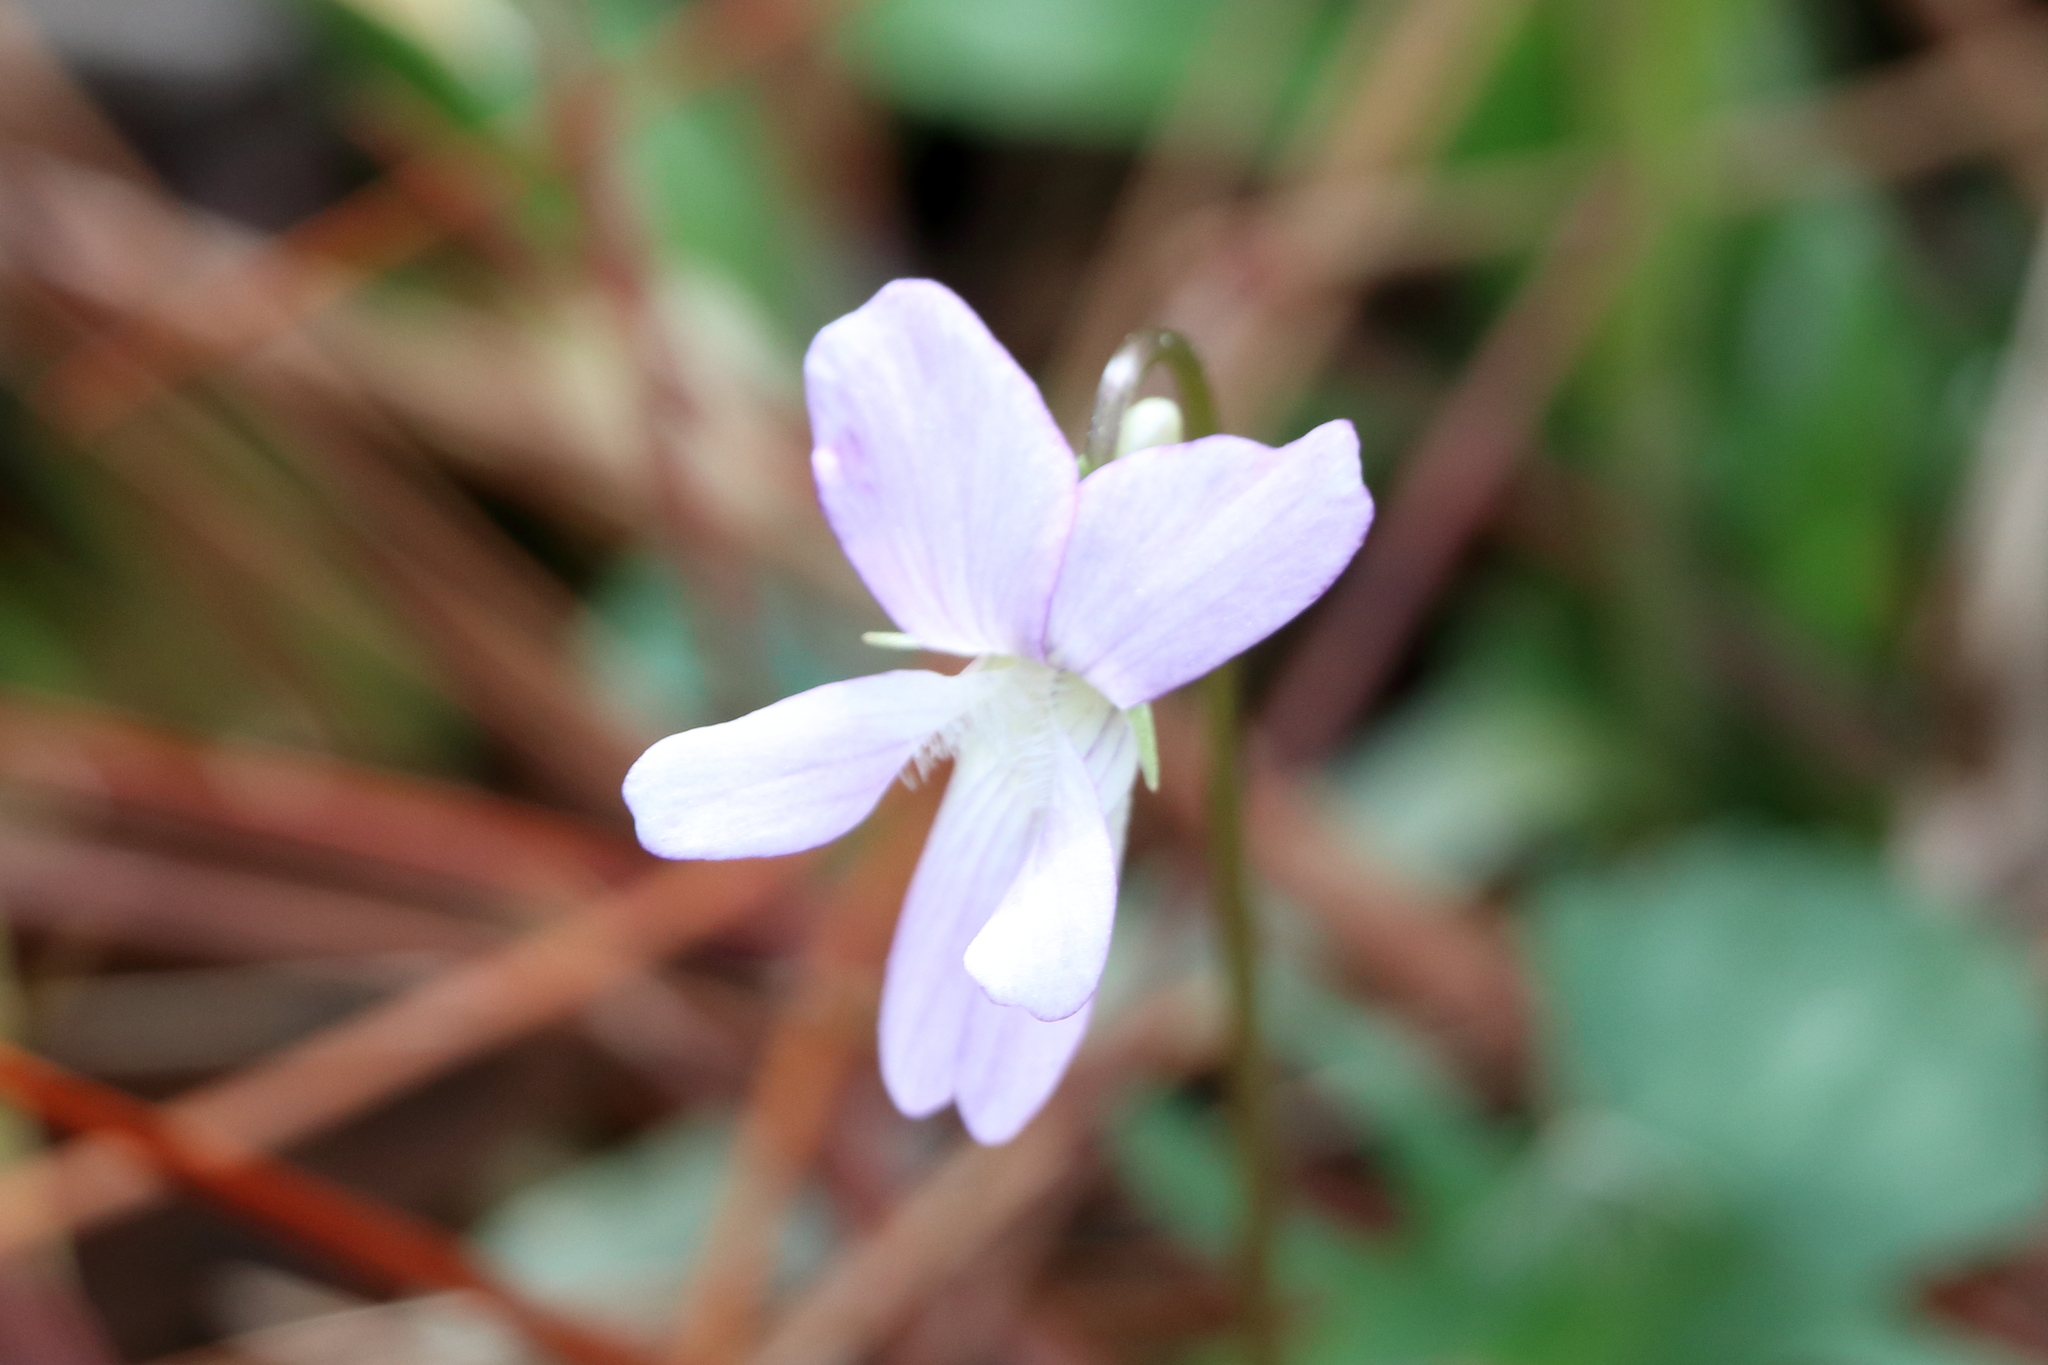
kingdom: Plantae
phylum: Tracheophyta
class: Magnoliopsida
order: Malpighiales
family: Violaceae
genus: Viola
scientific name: Viola septemloba
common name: Southern coast violet
